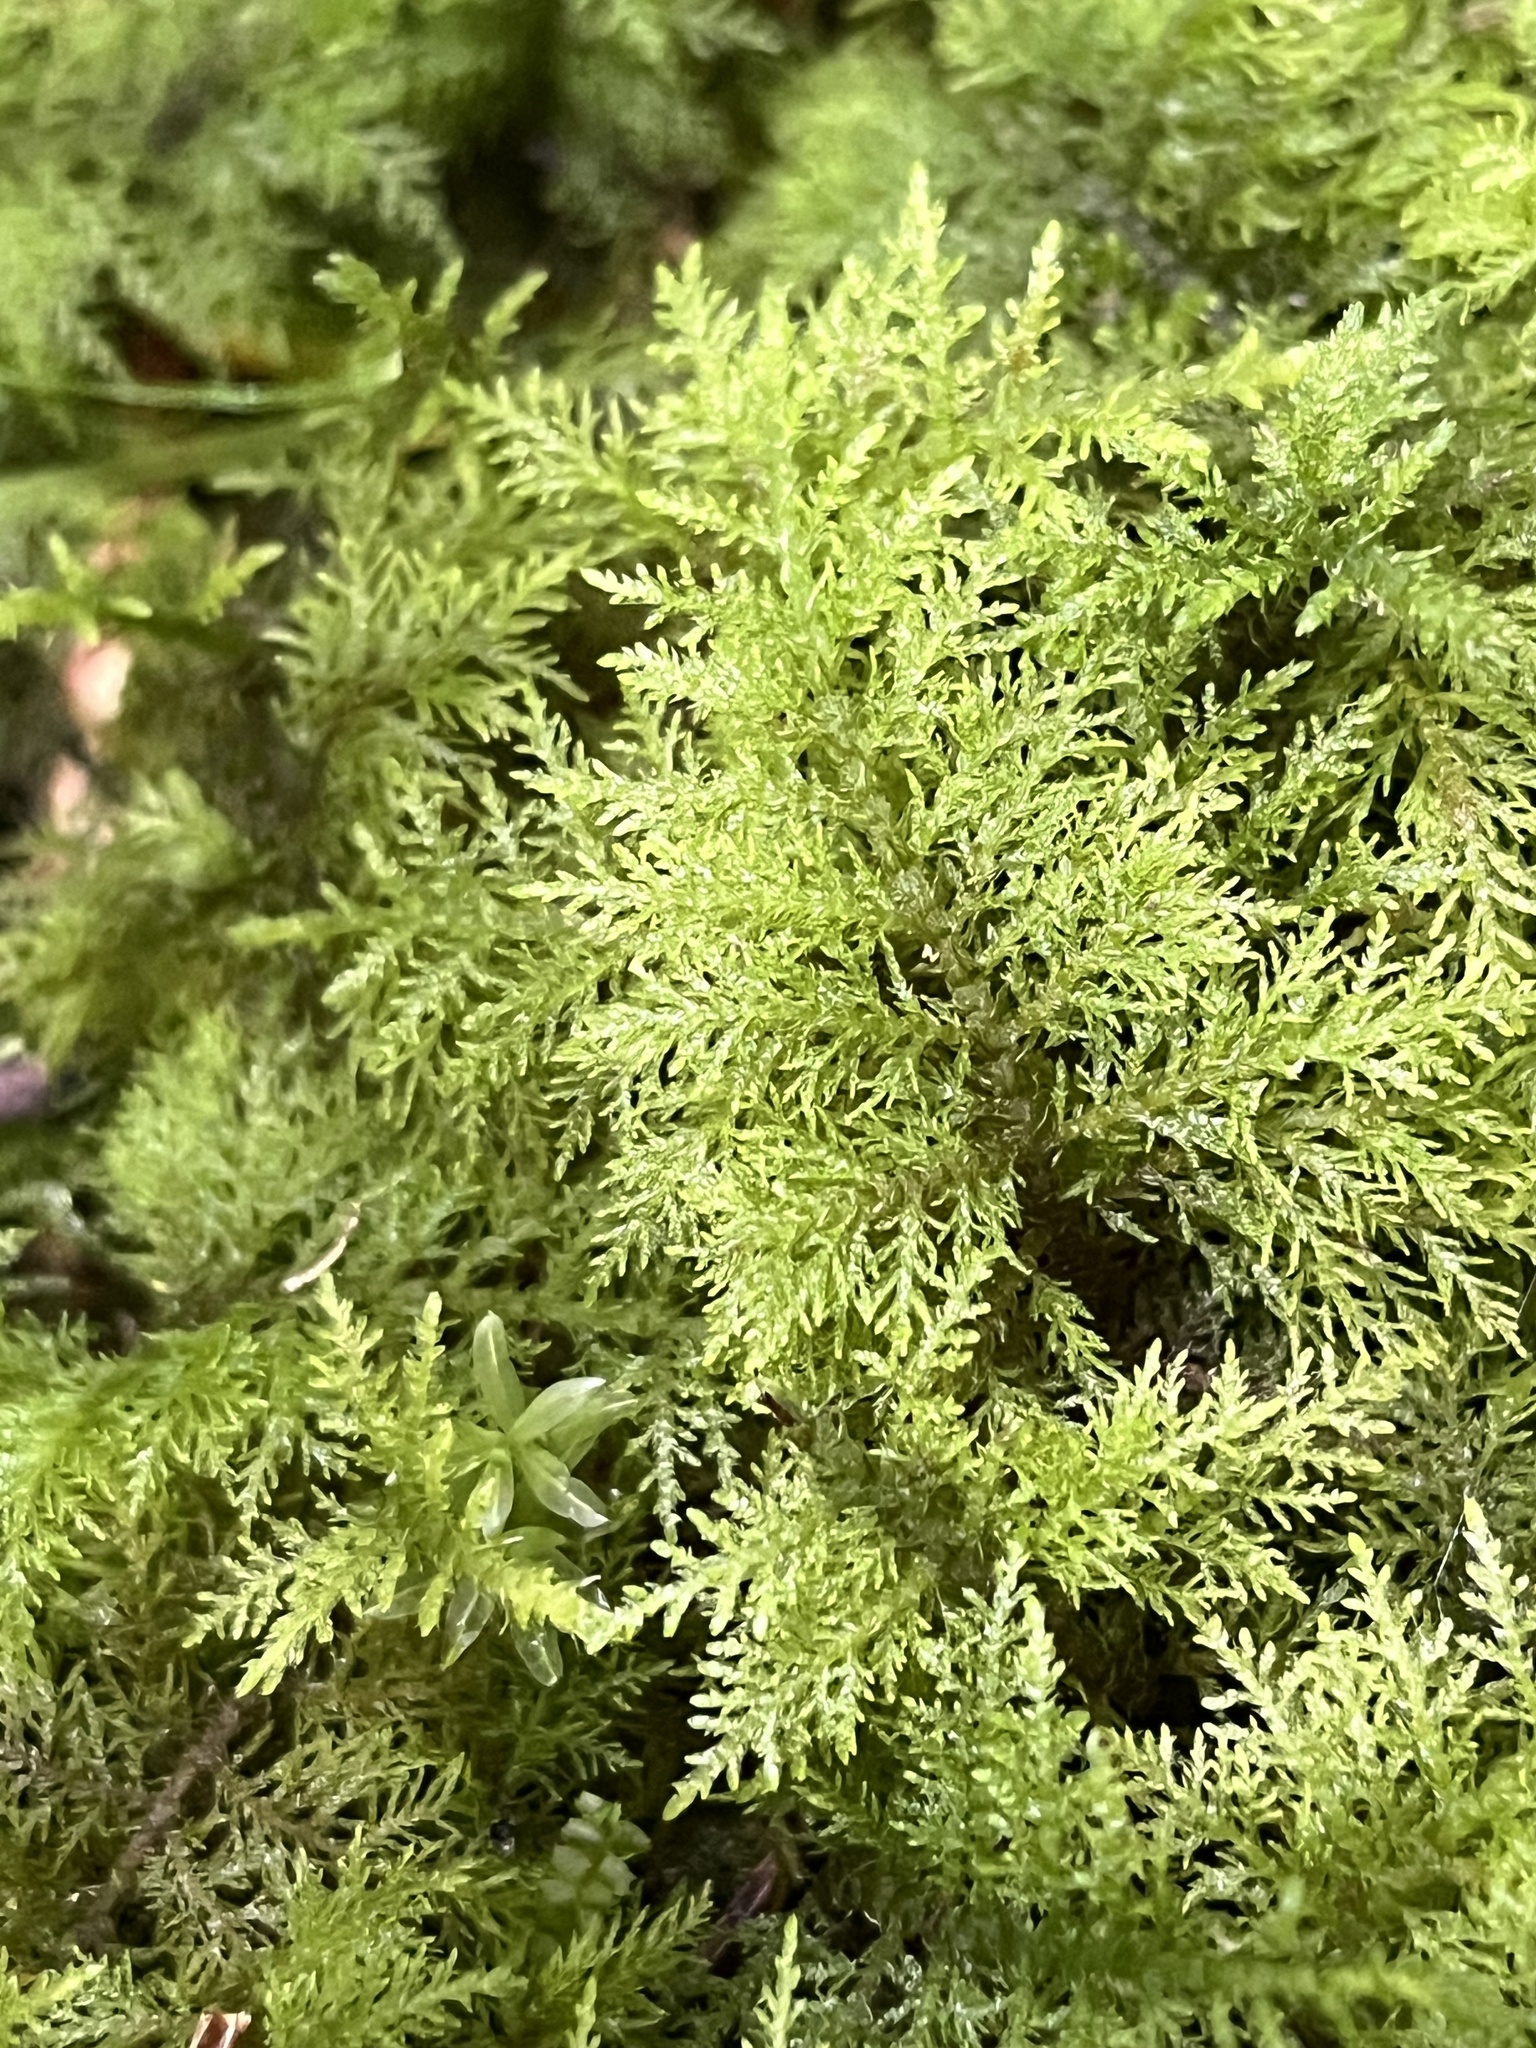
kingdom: Plantae
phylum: Bryophyta
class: Bryopsida
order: Hypnales
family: Thuidiaceae
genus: Thuidium
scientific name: Thuidium tamariscinum
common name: Common tamarisk-moss
